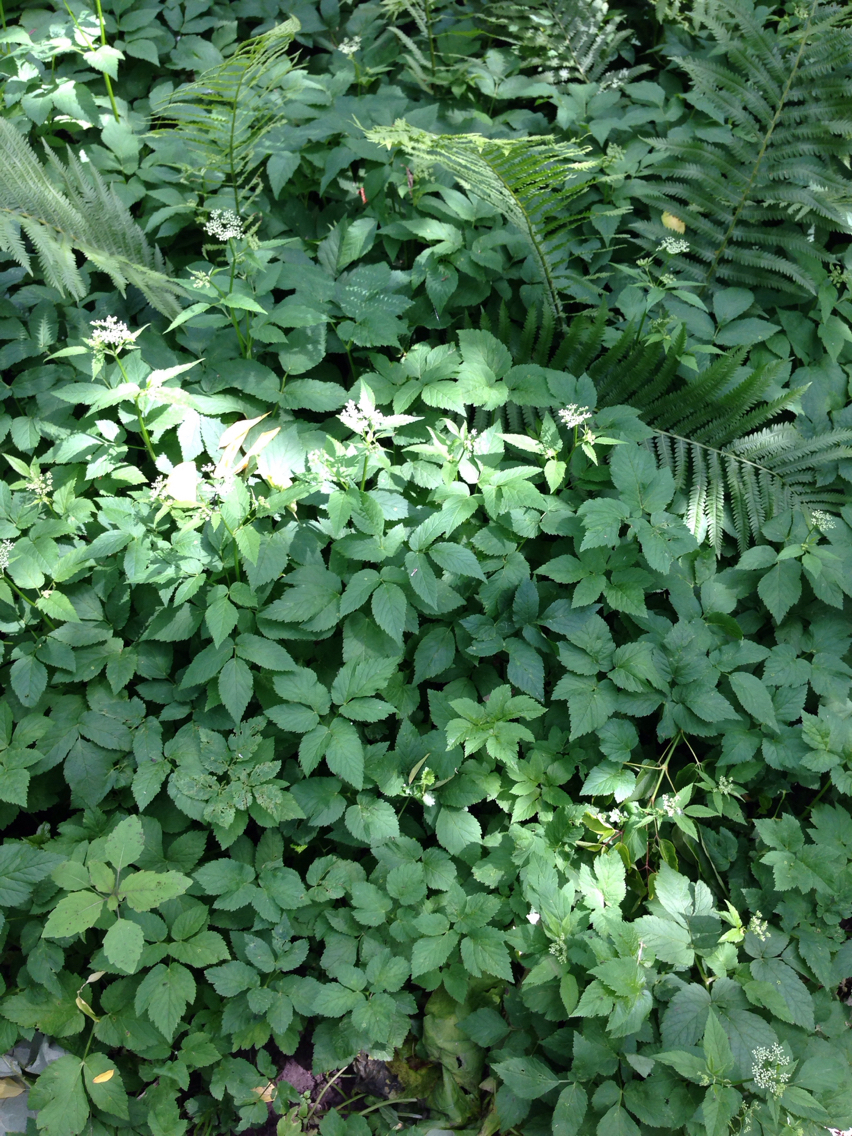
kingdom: Plantae
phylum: Tracheophyta
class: Magnoliopsida
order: Apiales
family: Apiaceae
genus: Aegopodium
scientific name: Aegopodium podagraria
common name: Ground-elder
